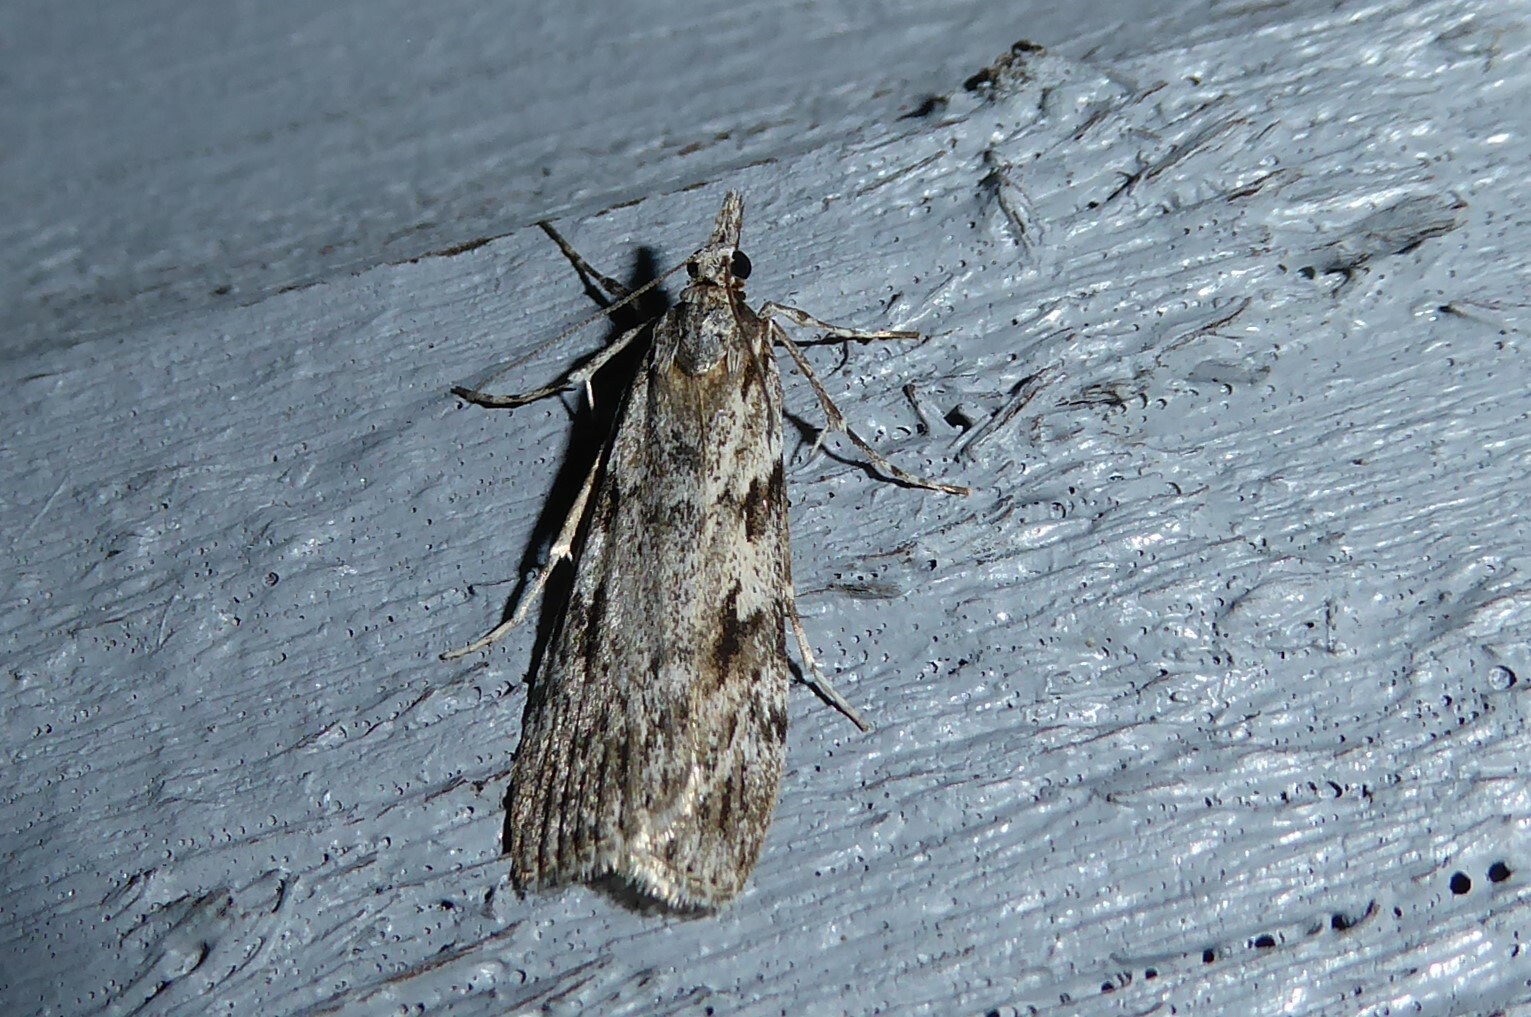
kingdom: Animalia
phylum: Arthropoda
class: Insecta
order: Lepidoptera
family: Crambidae
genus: Scoparia
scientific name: Scoparia halopis
